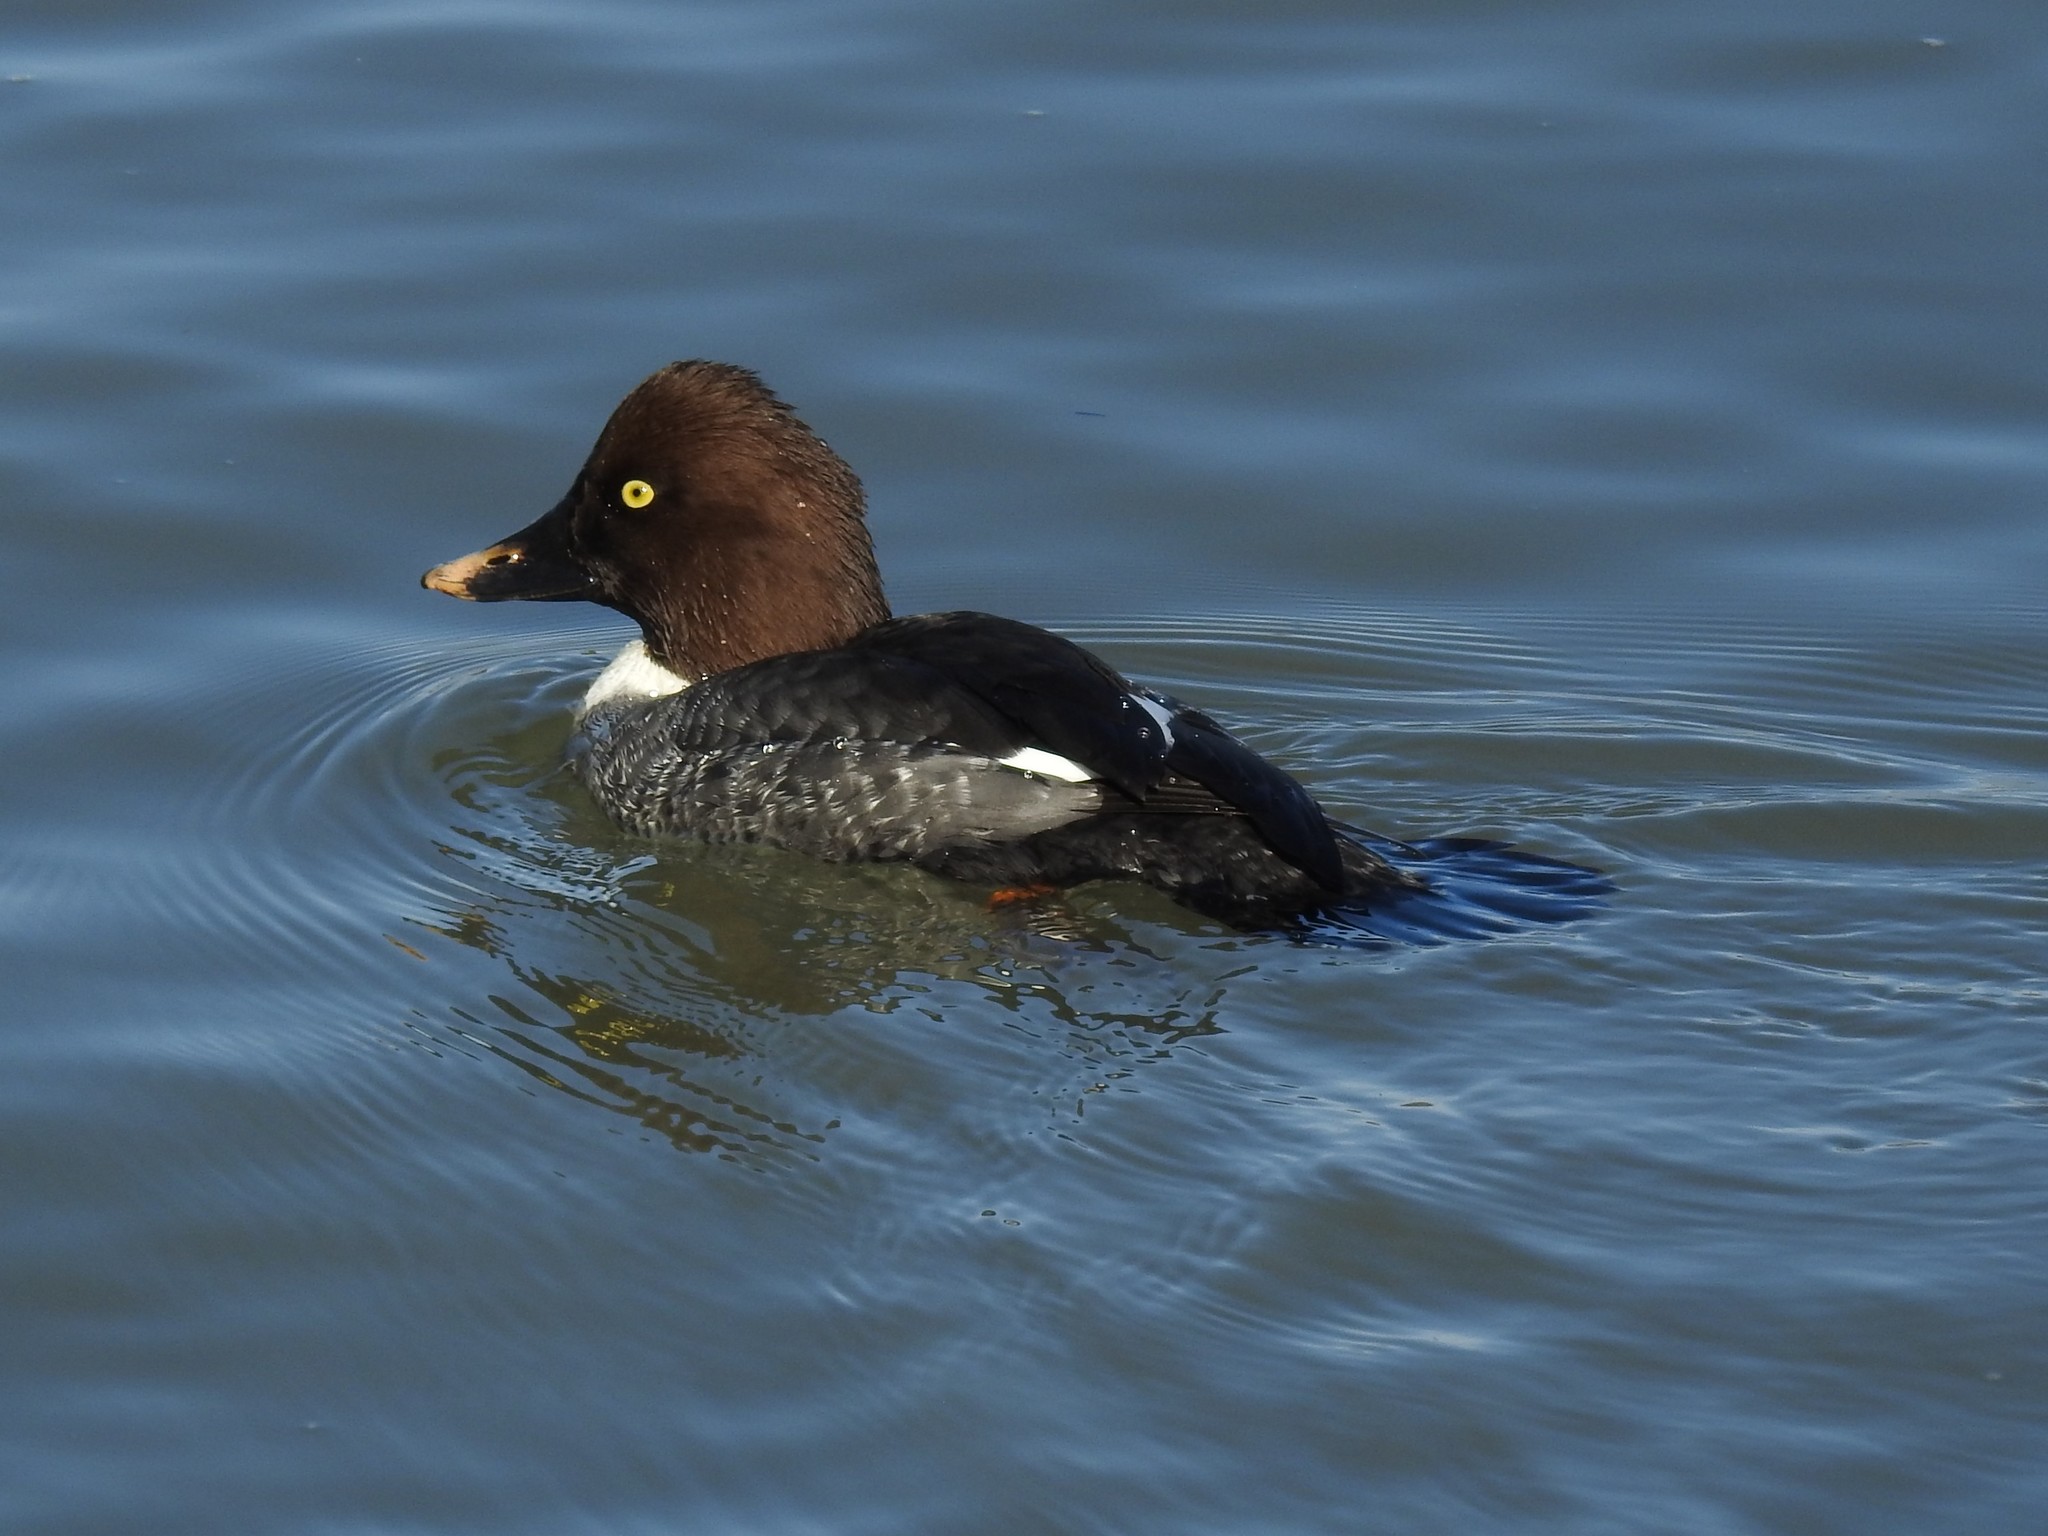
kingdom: Animalia
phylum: Chordata
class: Aves
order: Anseriformes
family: Anatidae
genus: Bucephala
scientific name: Bucephala clangula
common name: Common goldeneye
